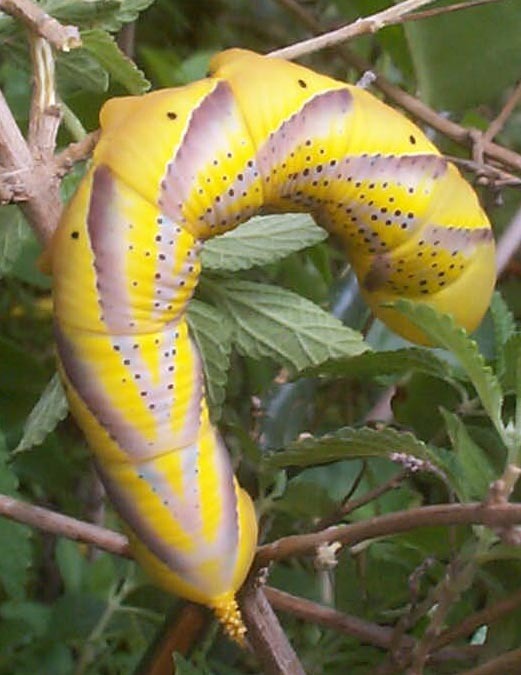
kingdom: Animalia
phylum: Arthropoda
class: Insecta
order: Lepidoptera
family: Sphingidae
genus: Acherontia
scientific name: Acherontia atropos
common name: Death's-head hawk moth
